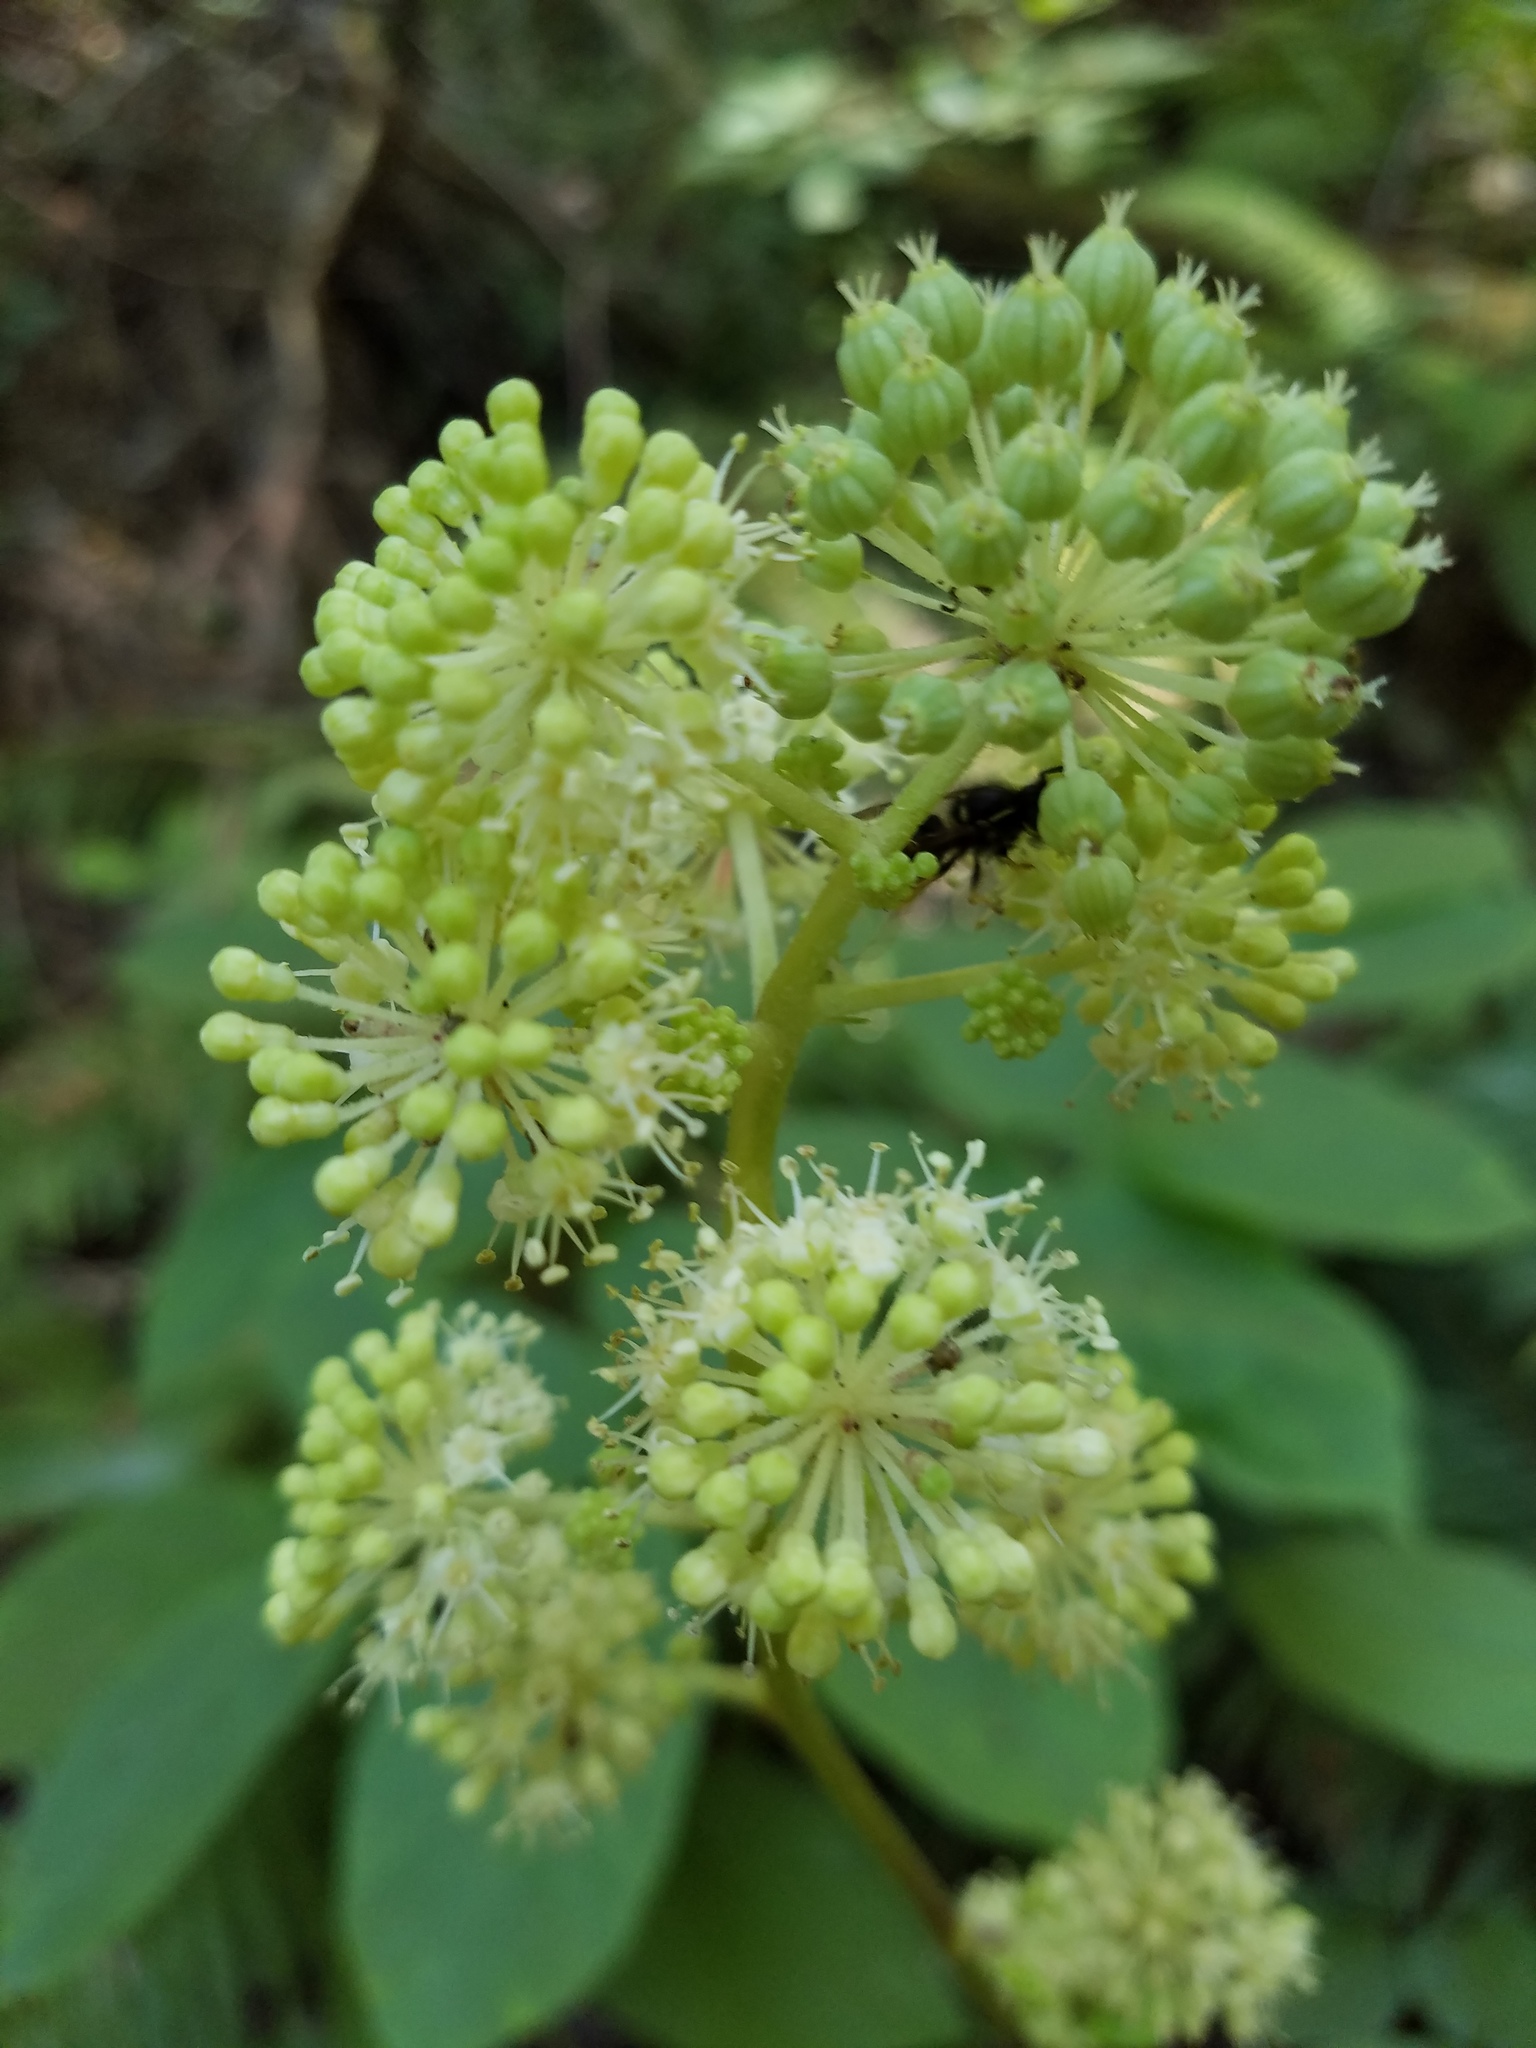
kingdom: Plantae
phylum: Tracheophyta
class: Magnoliopsida
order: Apiales
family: Araliaceae
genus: Aralia
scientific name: Aralia californica
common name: California-ginseng
